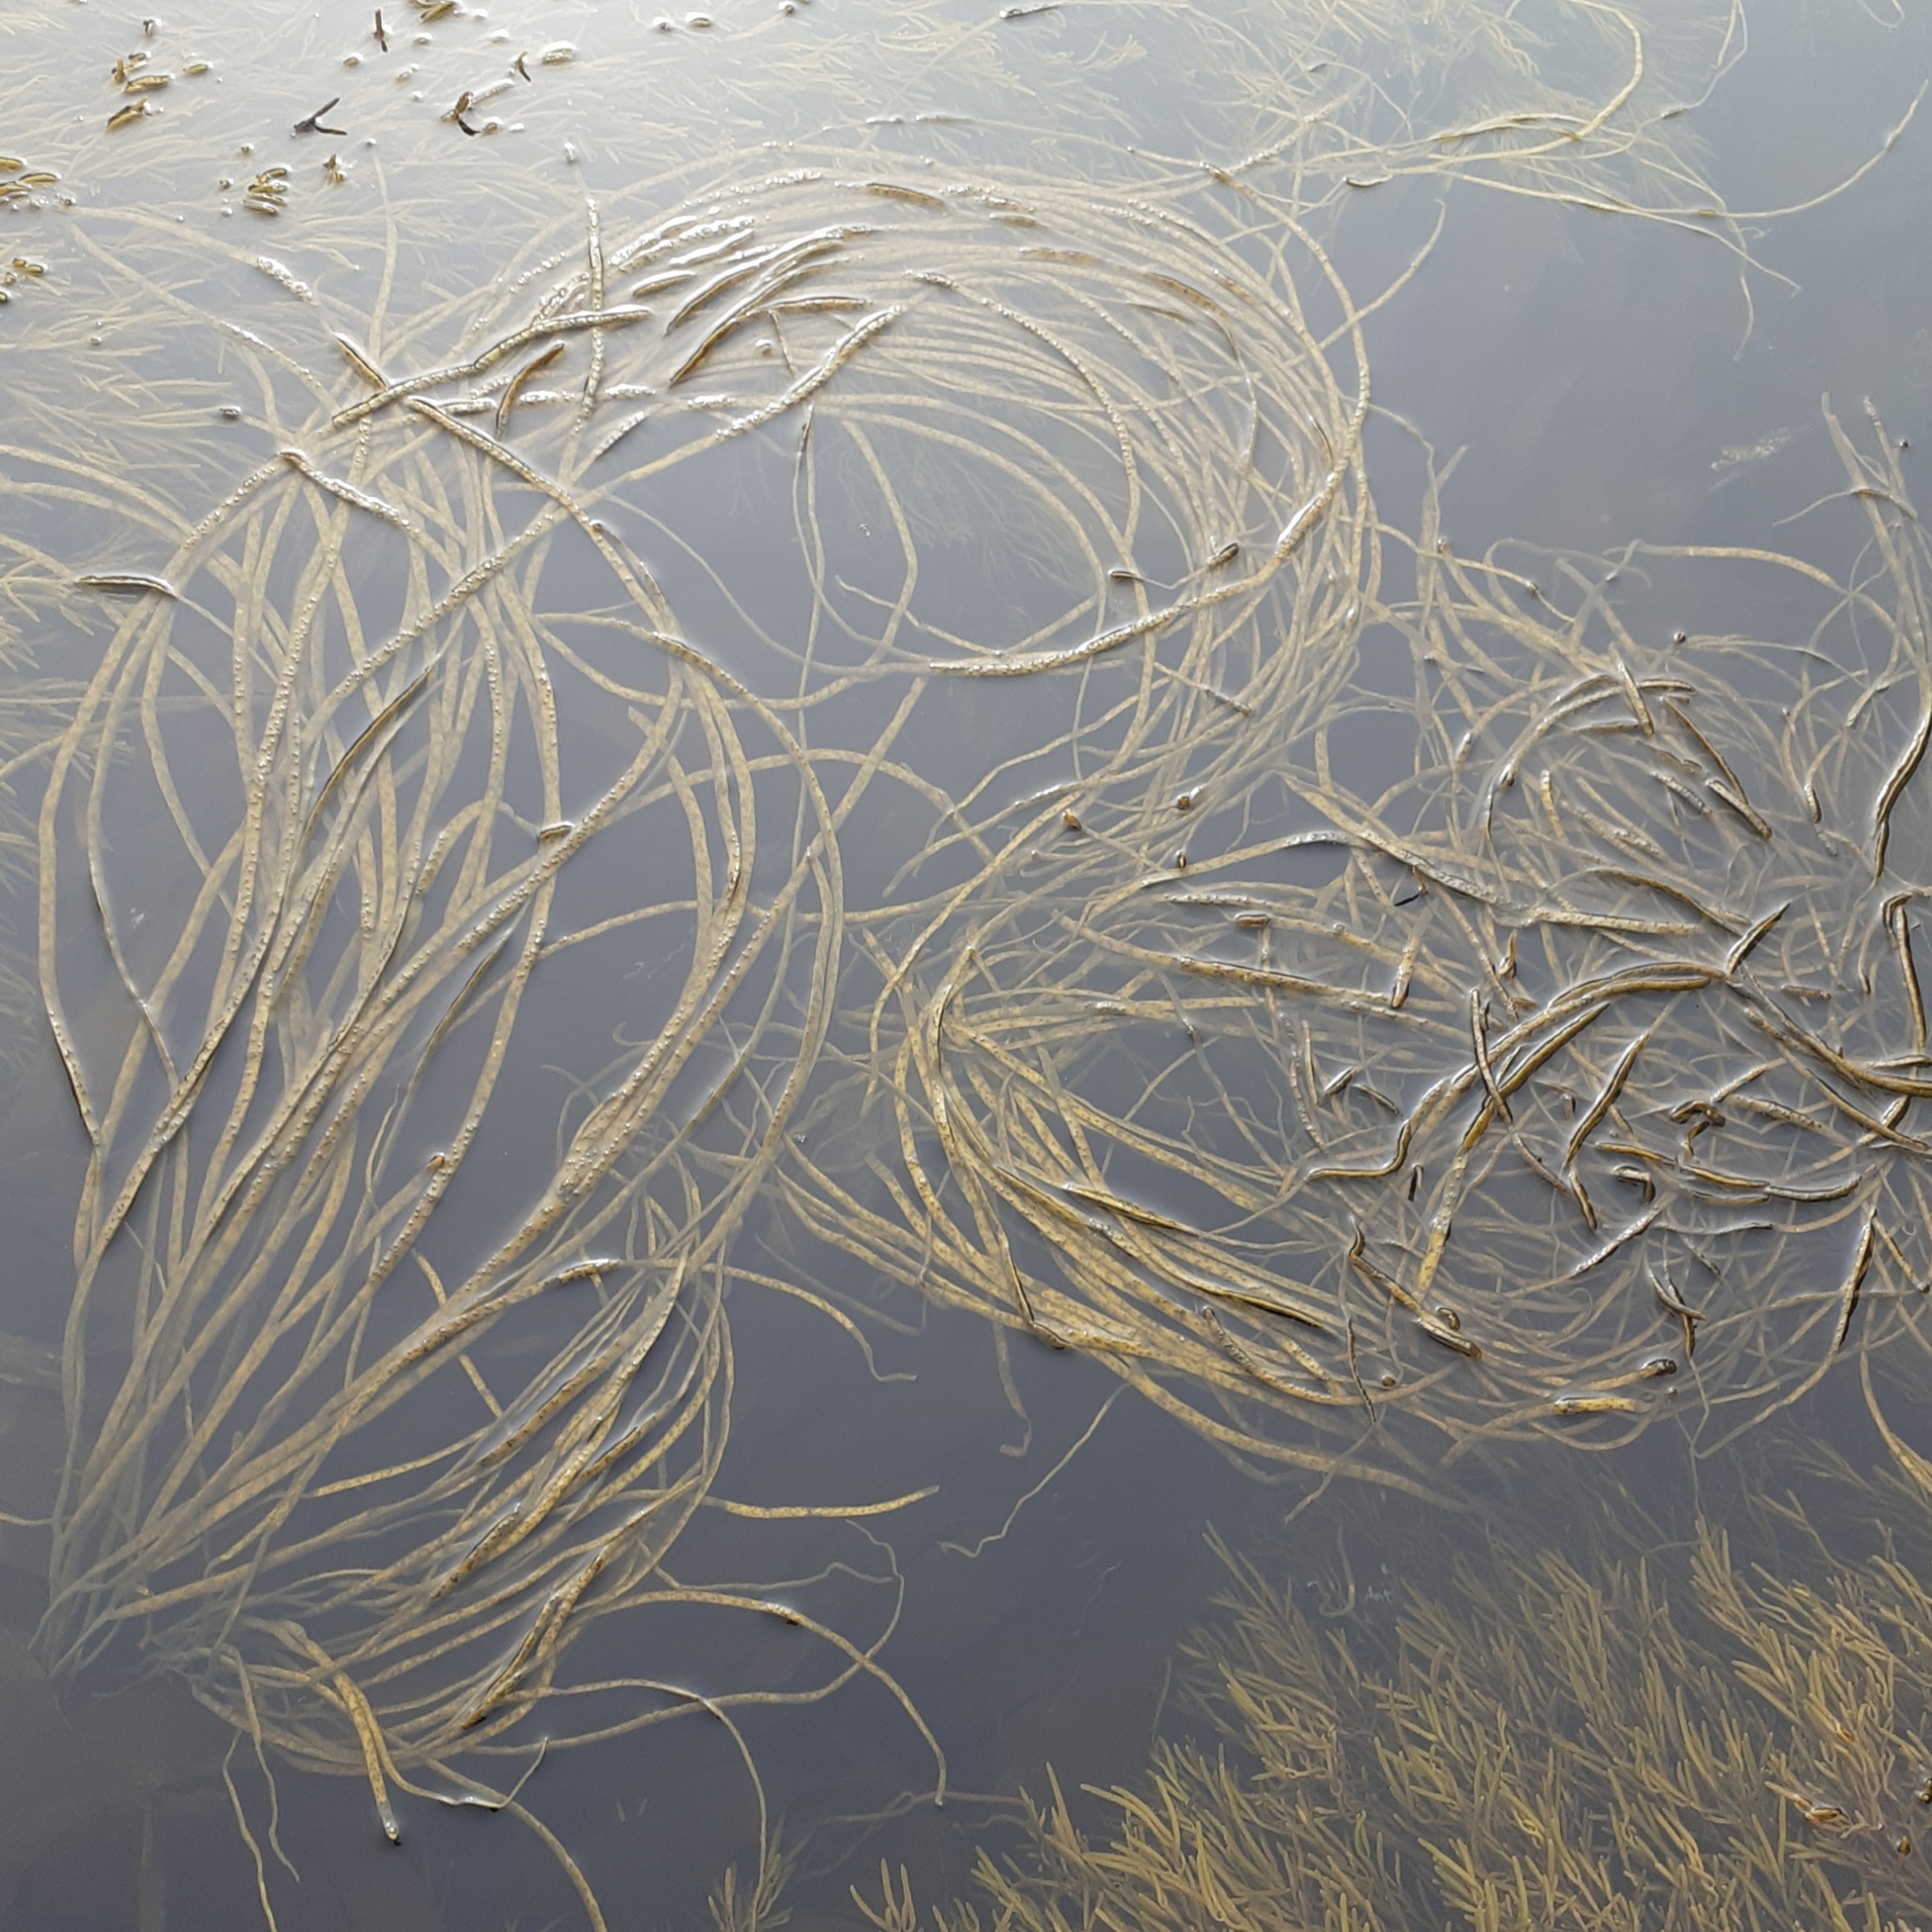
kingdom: Chromista
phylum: Ochrophyta
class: Phaeophyceae
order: Fucales
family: Himanthaliaceae
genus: Himanthalia
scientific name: Himanthalia elongata
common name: Sea-thong
